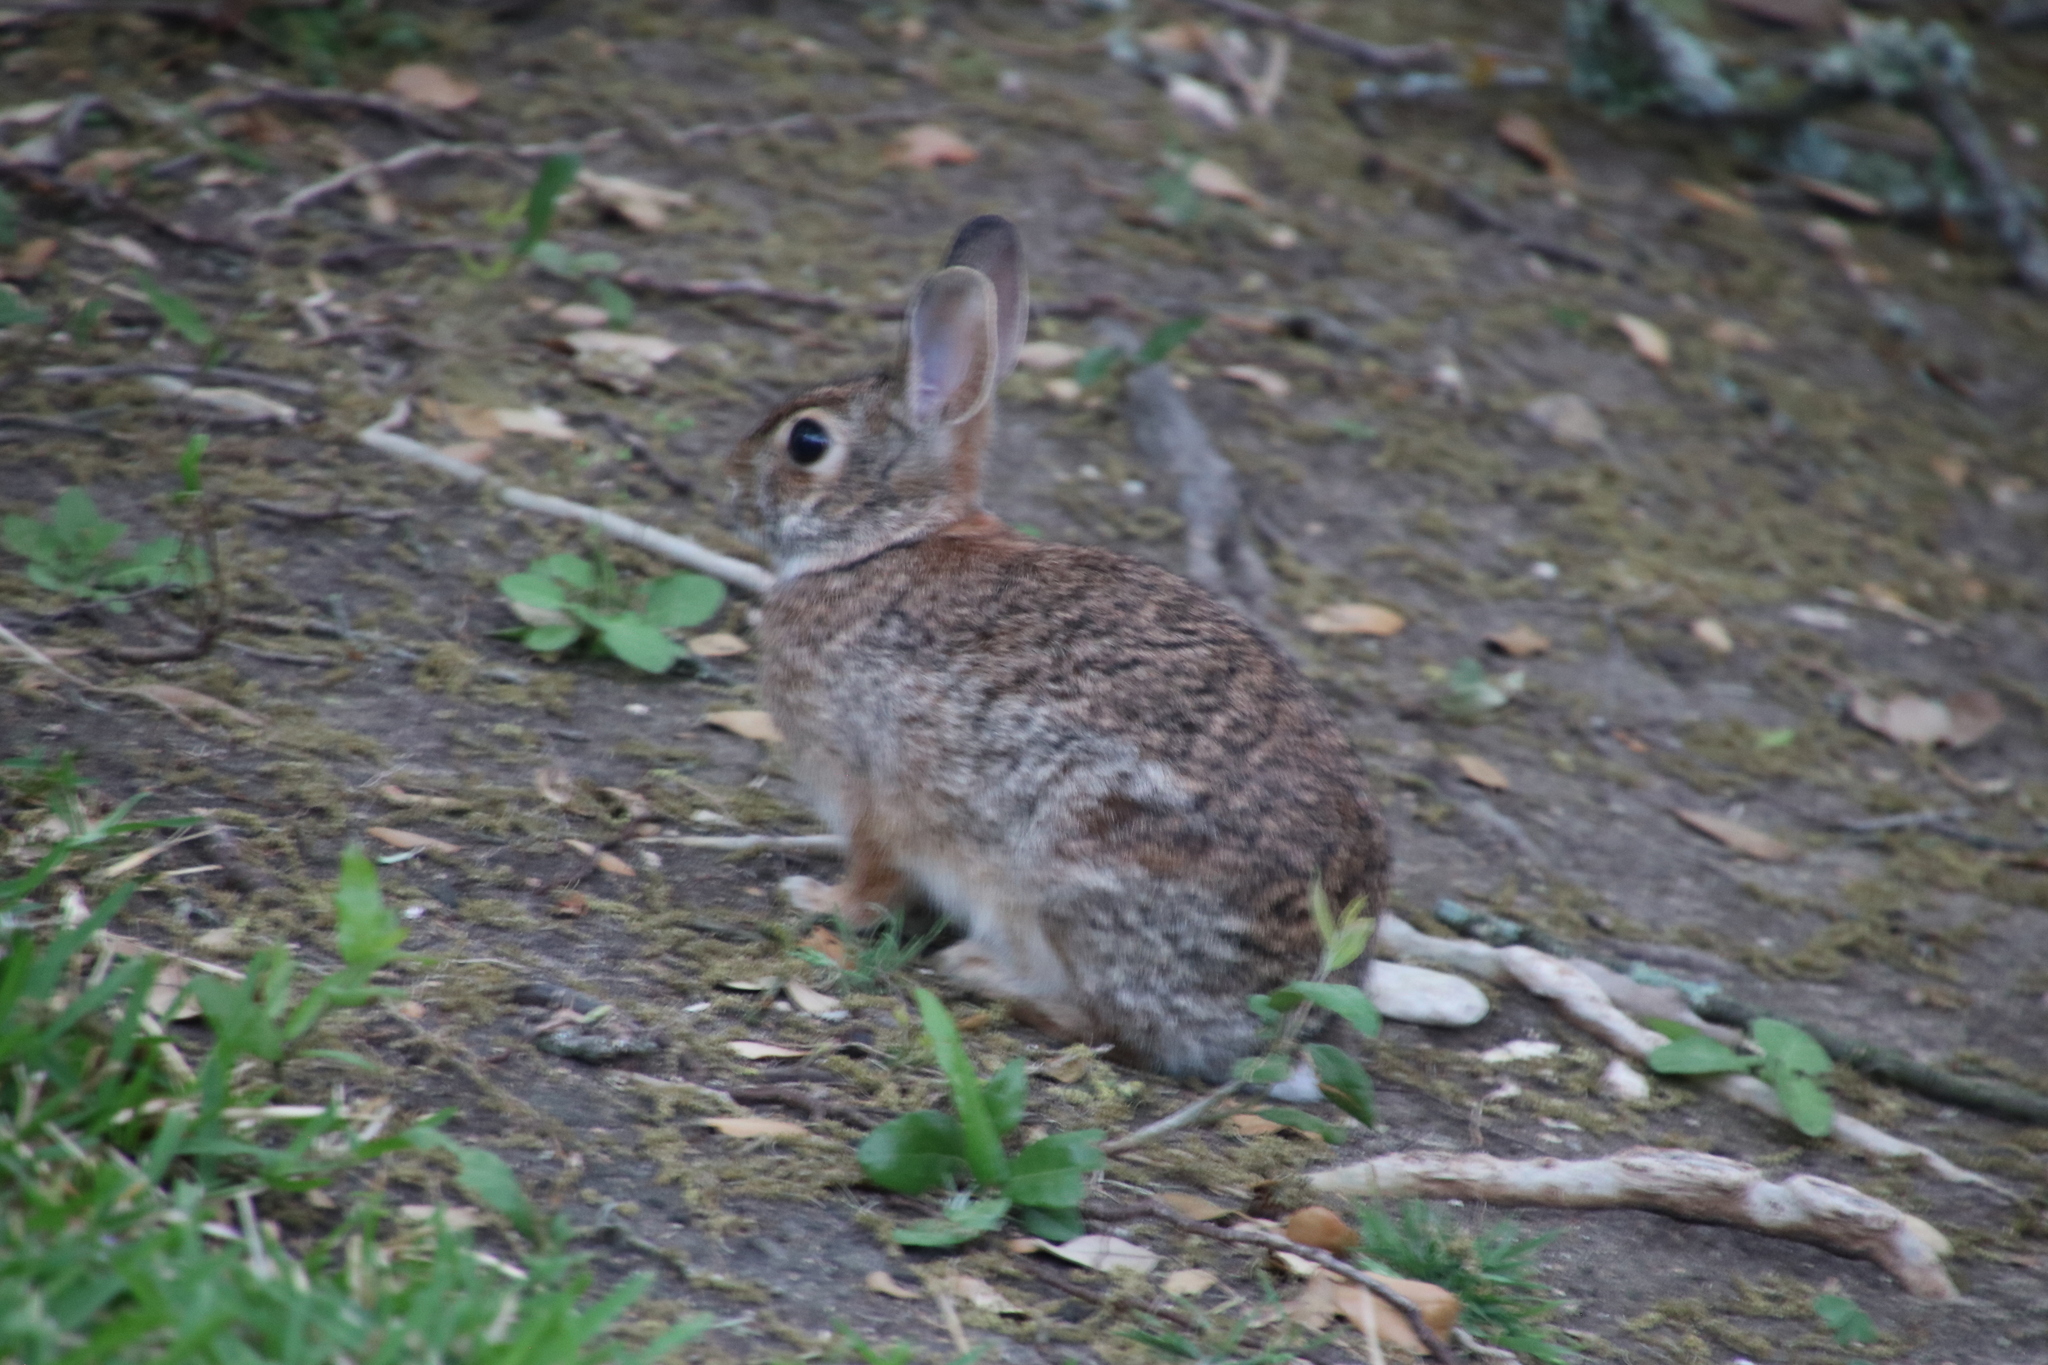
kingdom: Animalia
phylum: Chordata
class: Mammalia
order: Lagomorpha
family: Leporidae
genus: Sylvilagus
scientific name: Sylvilagus floridanus
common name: Eastern cottontail
